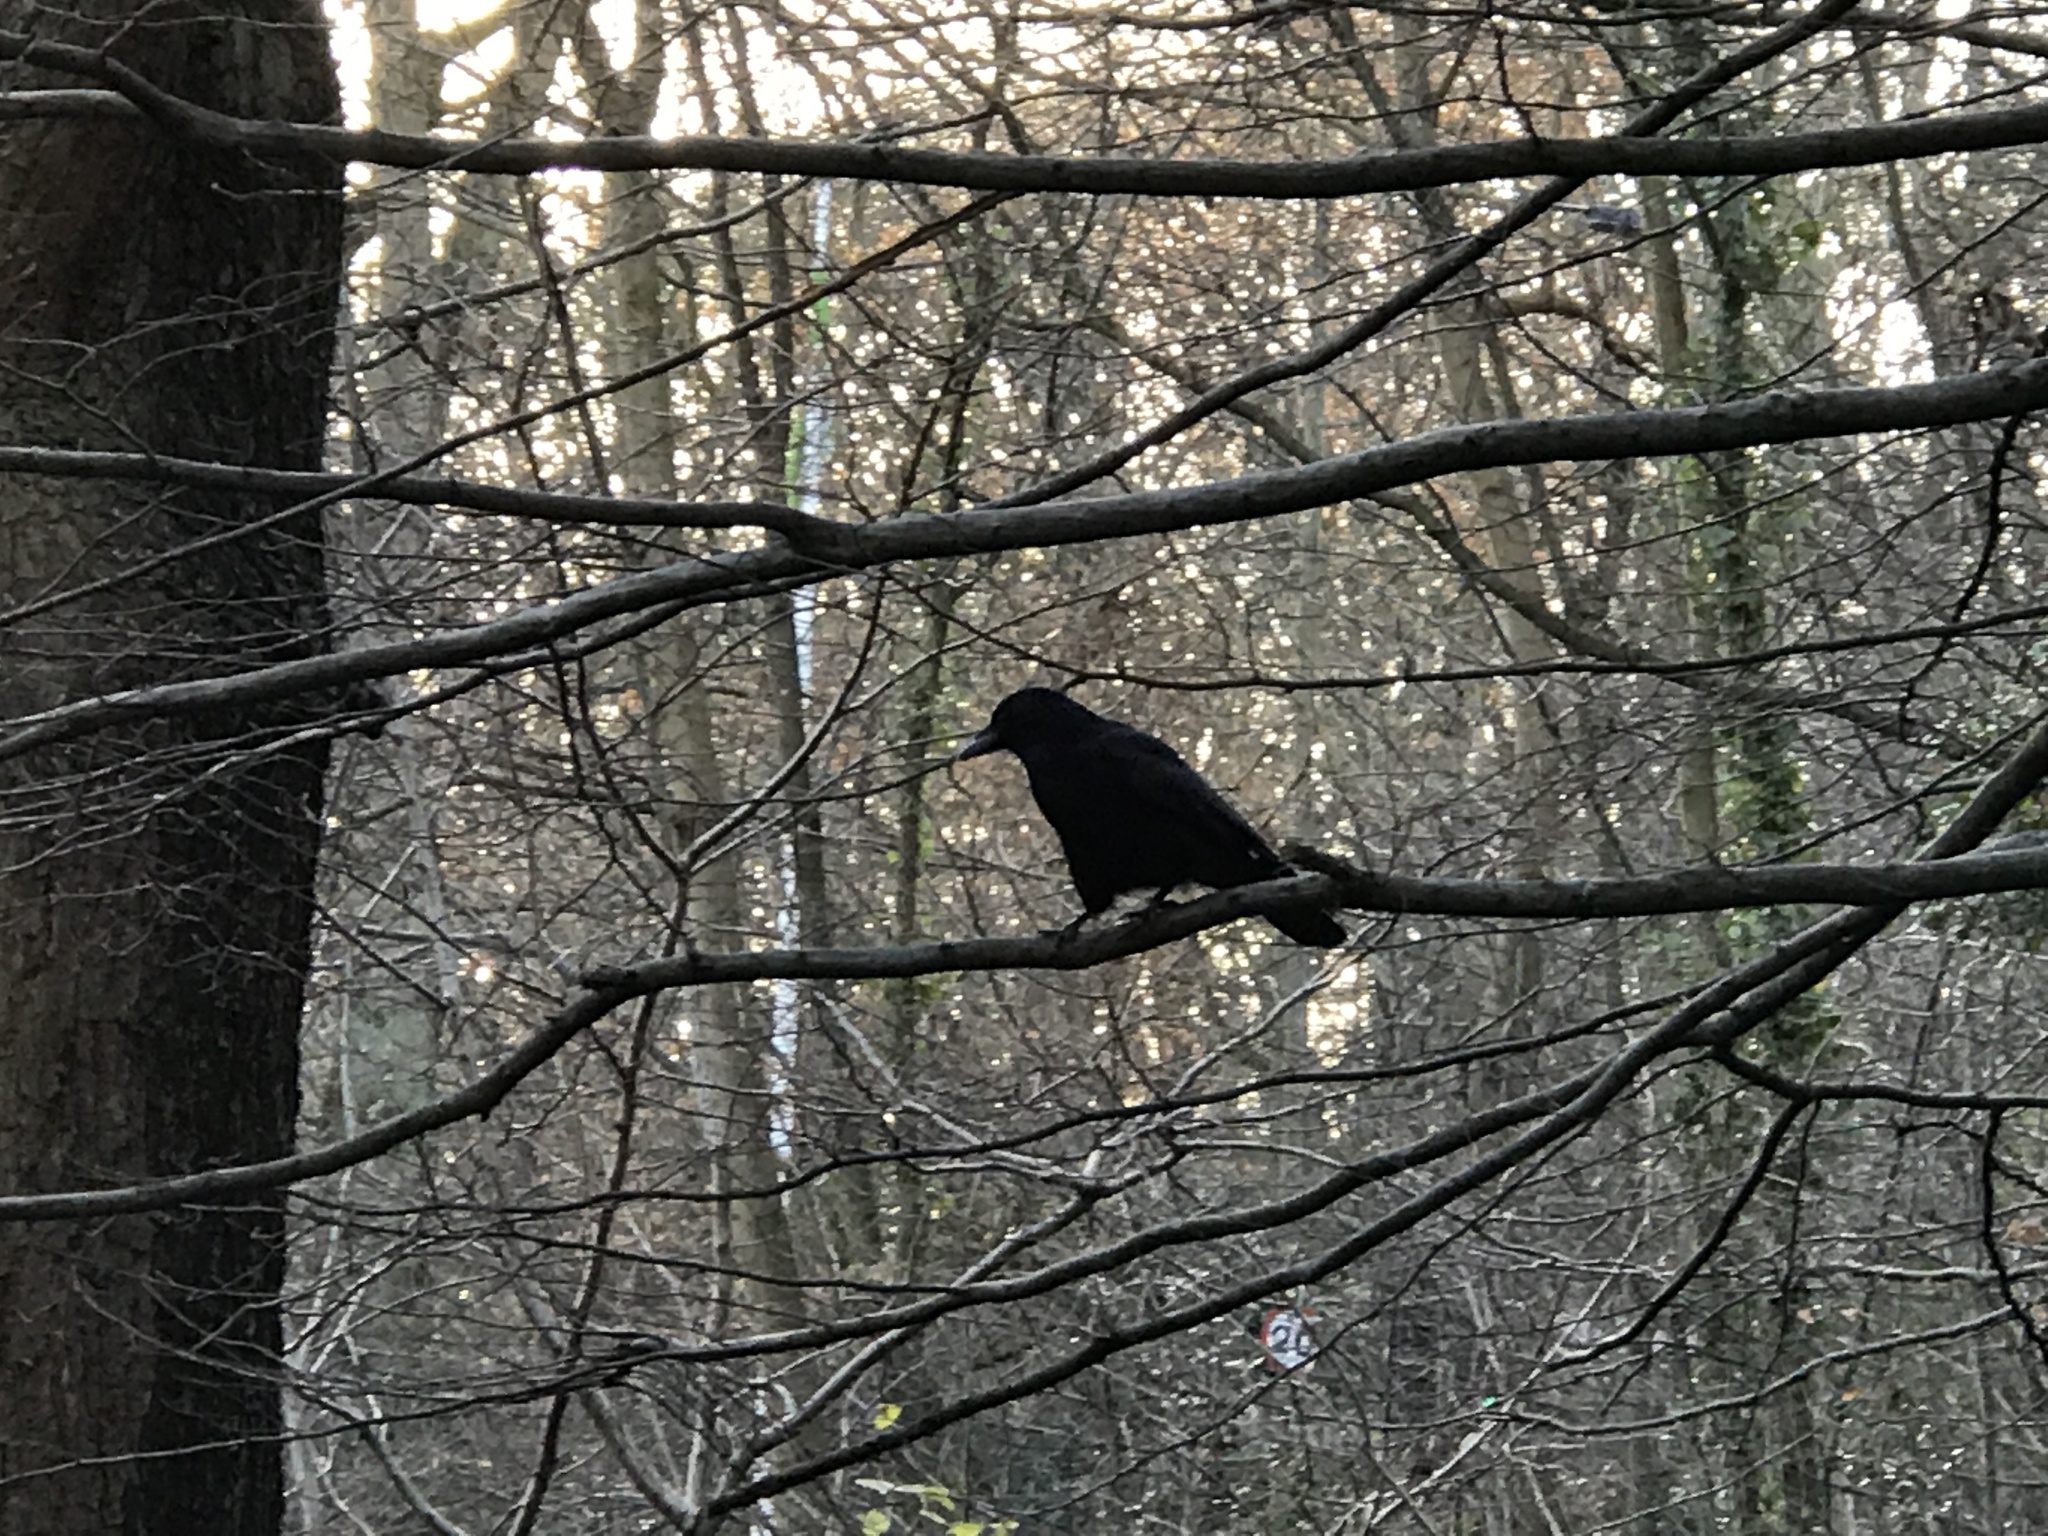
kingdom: Animalia
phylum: Chordata
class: Aves
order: Passeriformes
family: Corvidae
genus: Corvus
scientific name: Corvus corone
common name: Carrion crow
